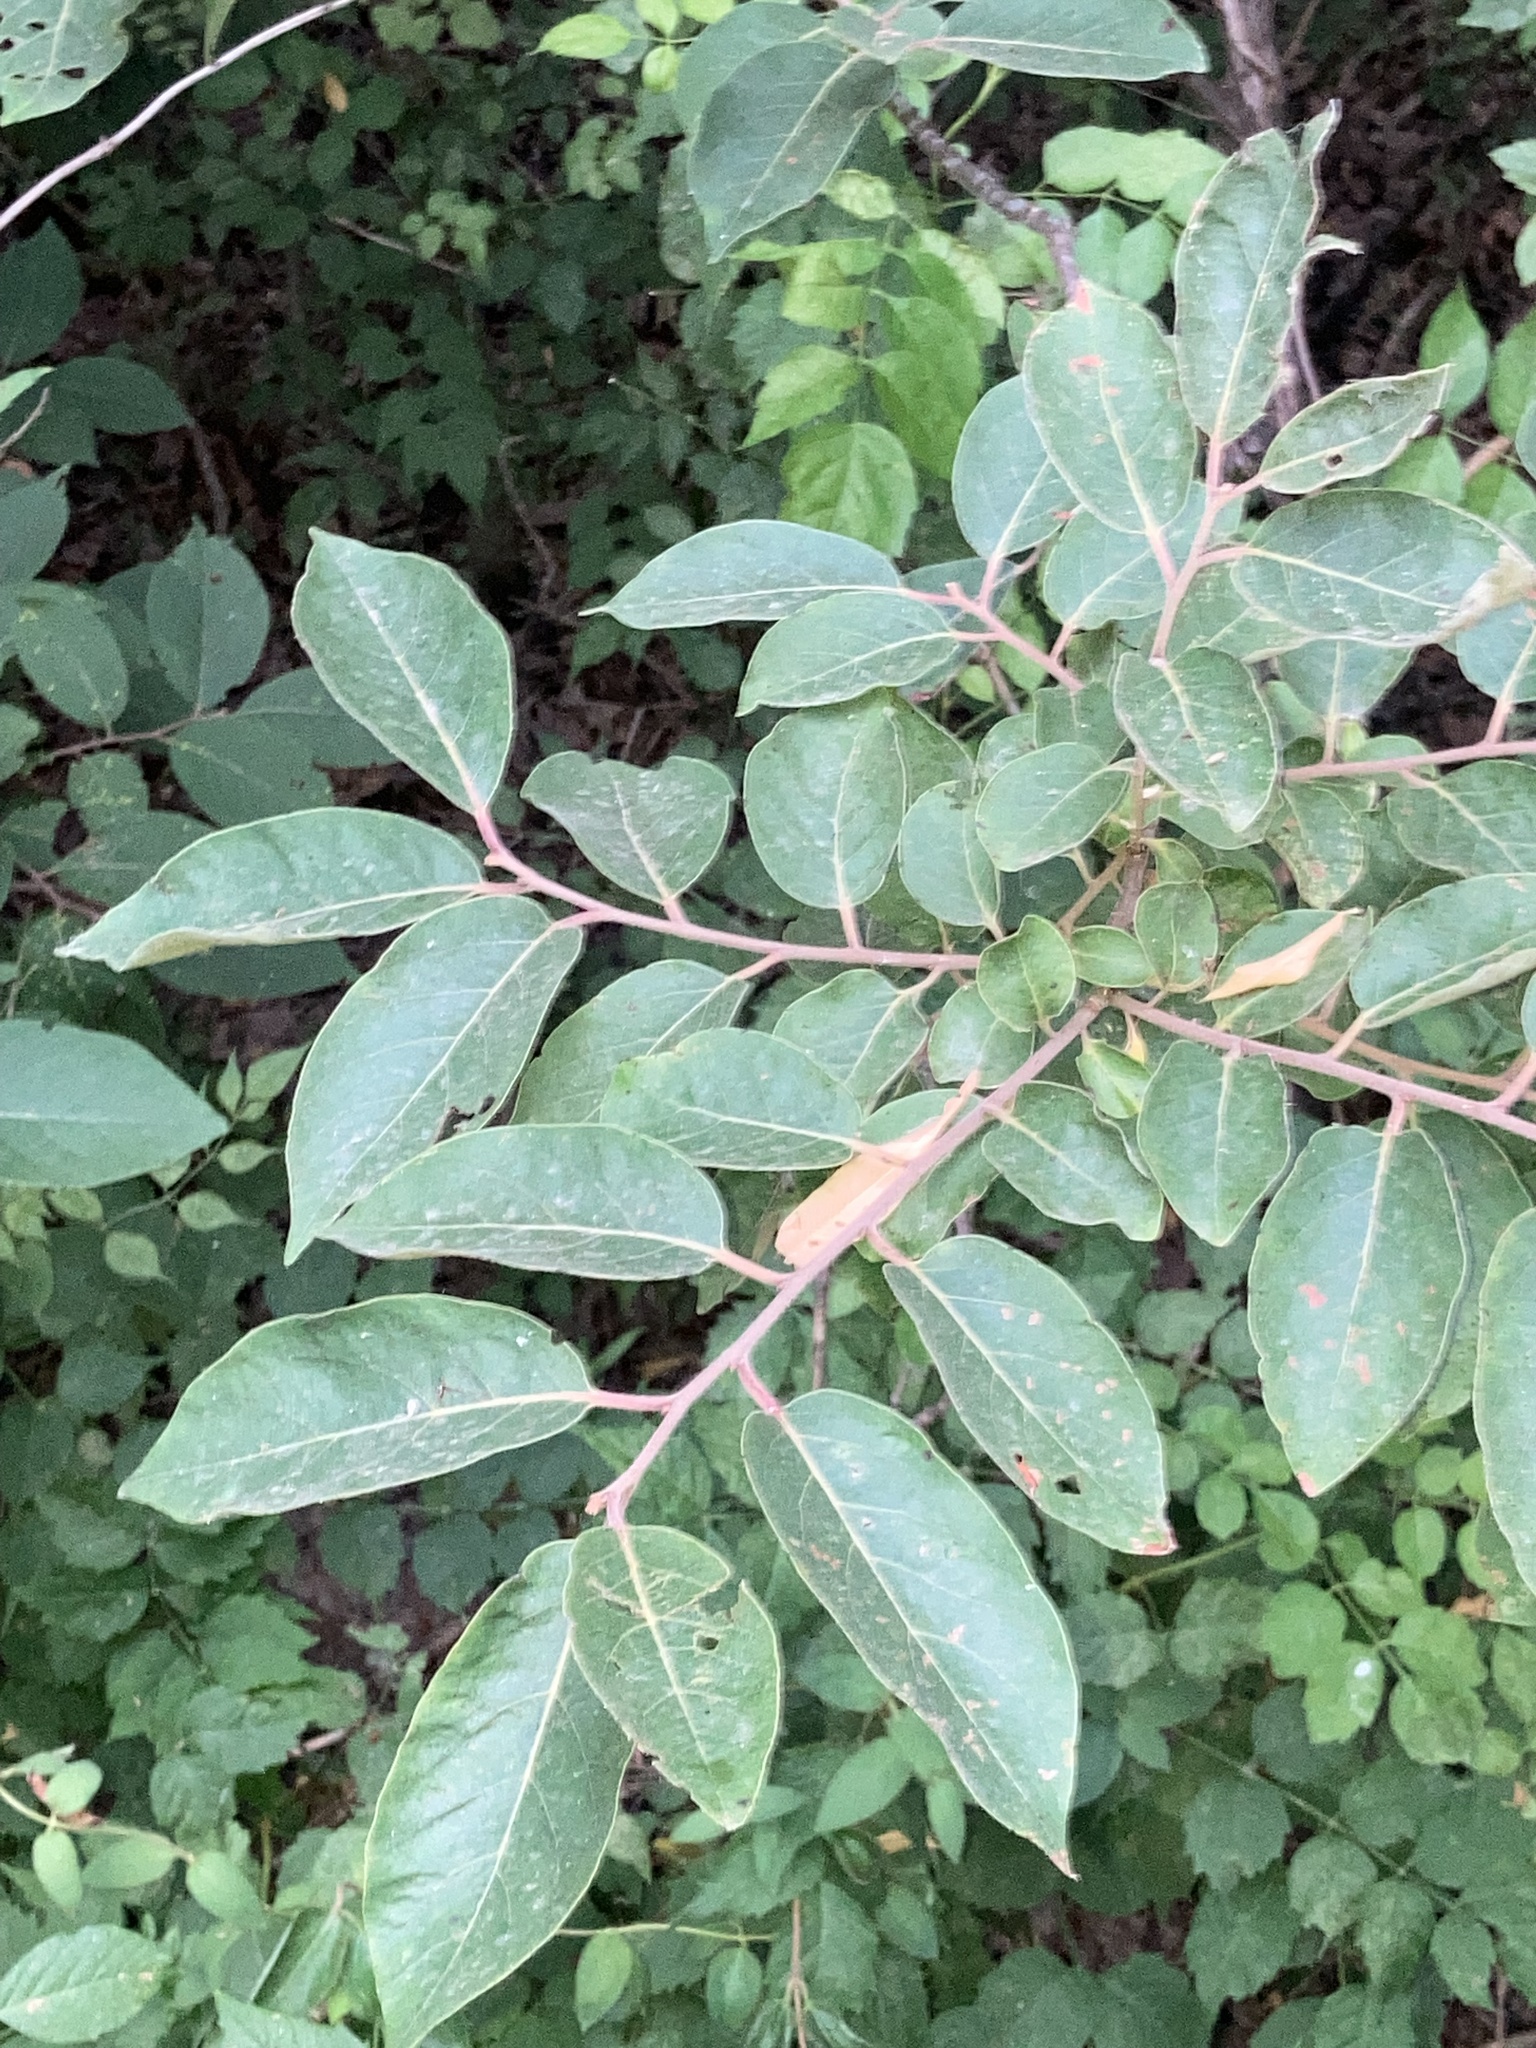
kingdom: Plantae
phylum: Tracheophyta
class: Magnoliopsida
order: Ericales
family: Ebenaceae
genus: Diospyros
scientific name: Diospyros virginiana
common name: Persimmon
